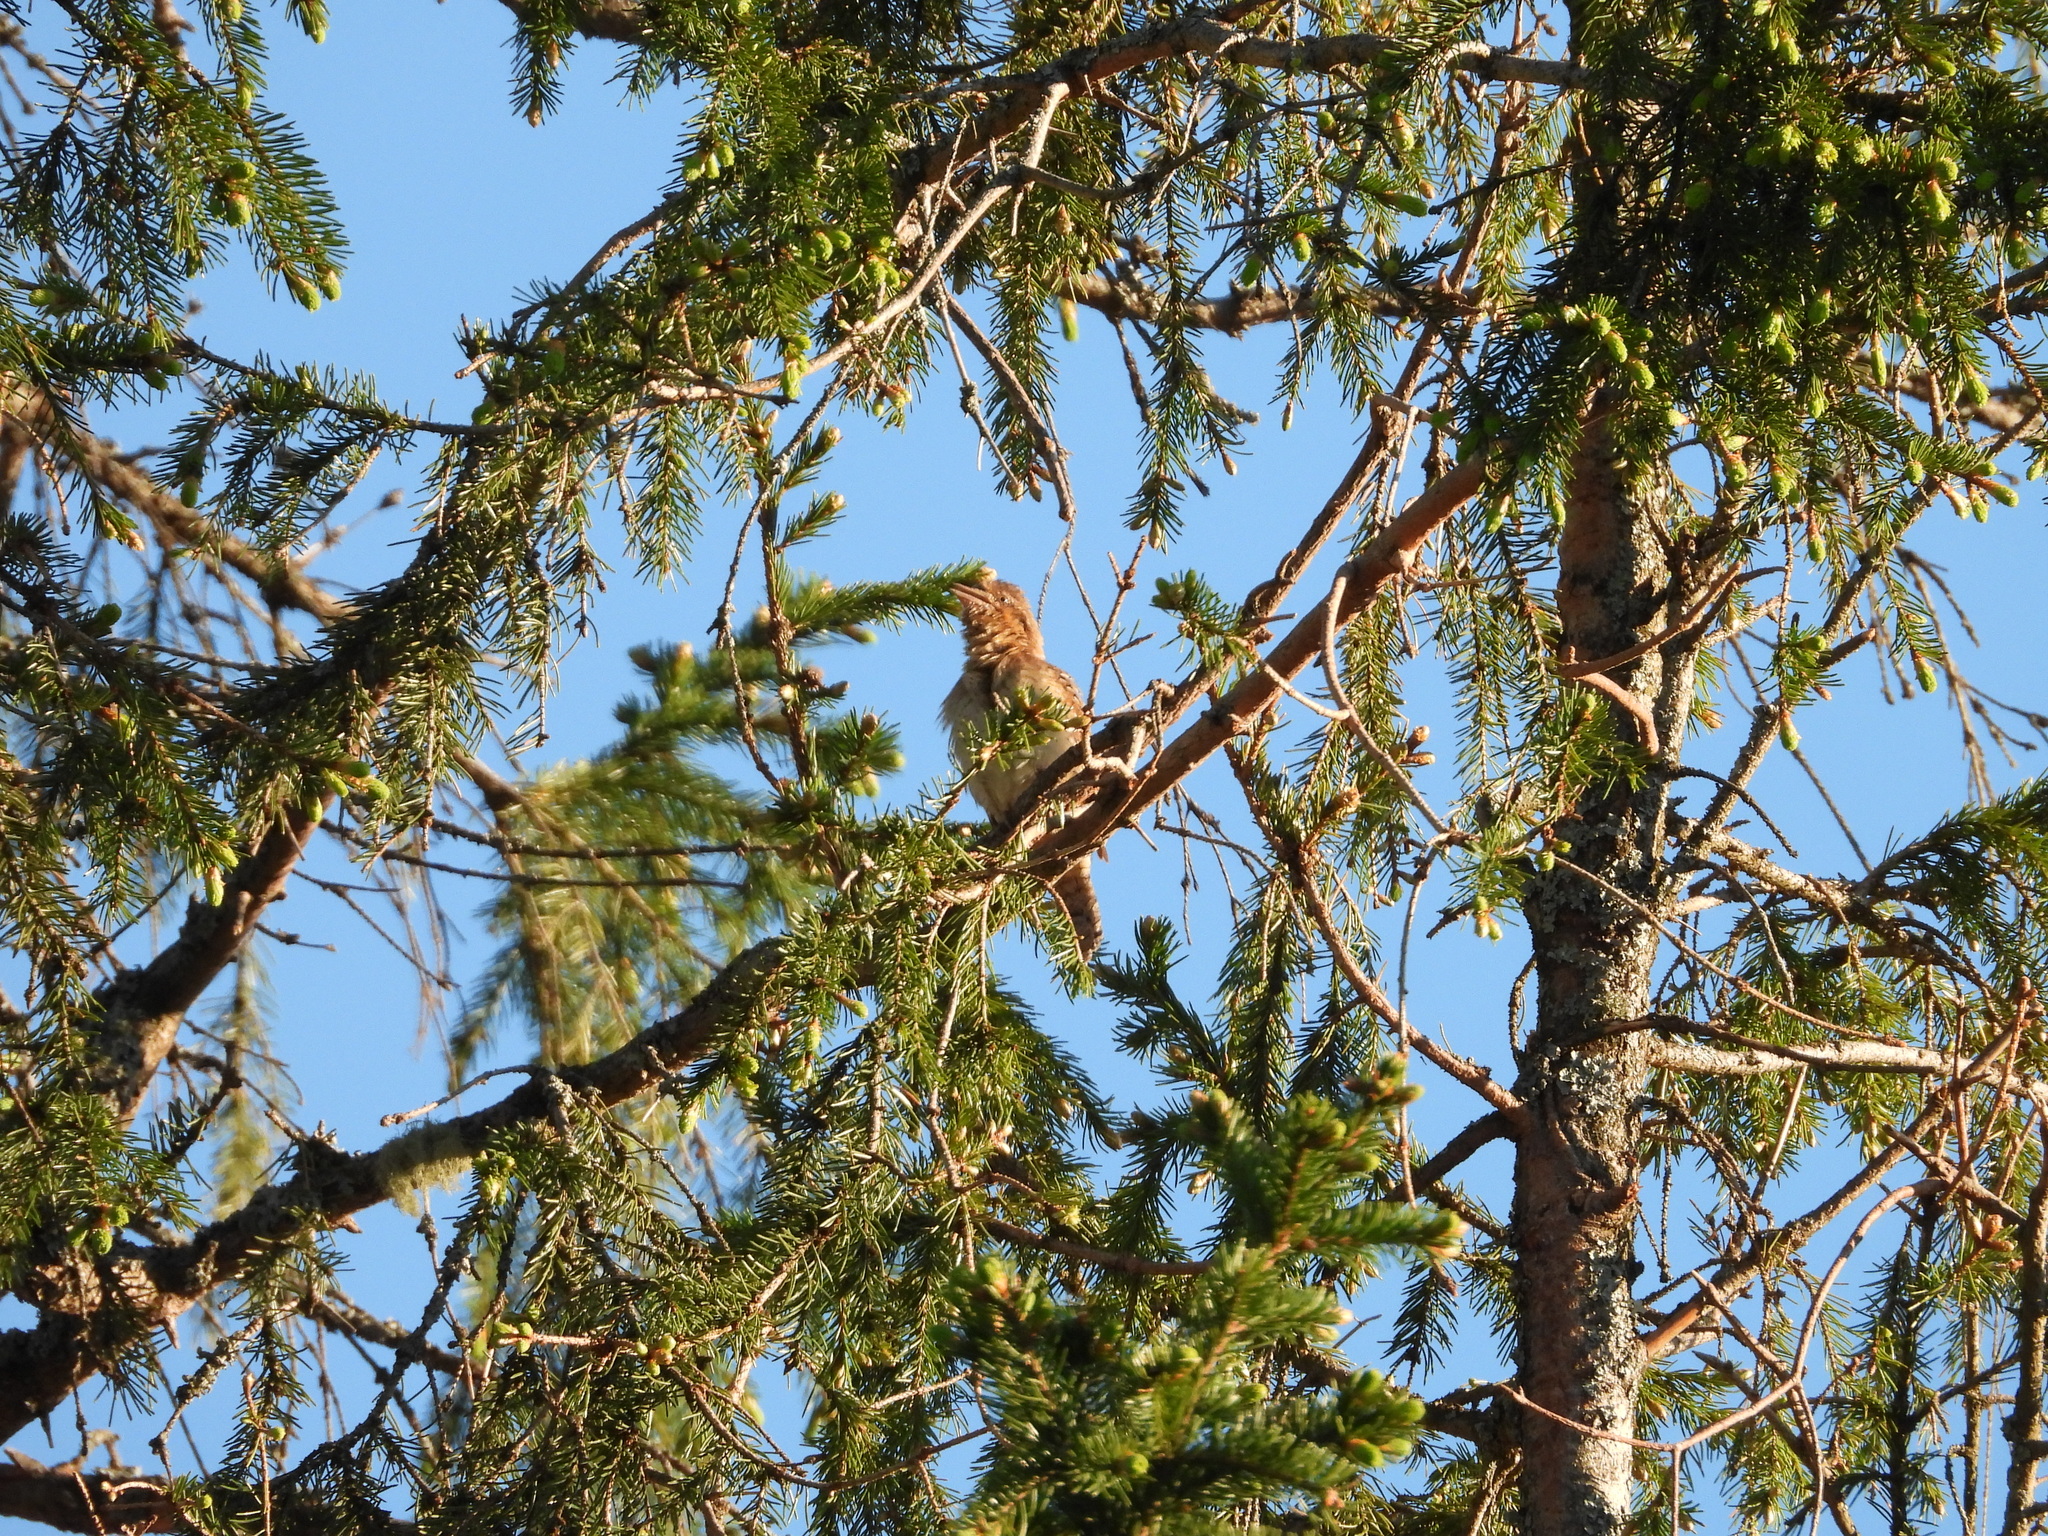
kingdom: Animalia
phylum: Chordata
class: Aves
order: Piciformes
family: Picidae
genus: Jynx
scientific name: Jynx torquilla
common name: Eurasian wryneck
